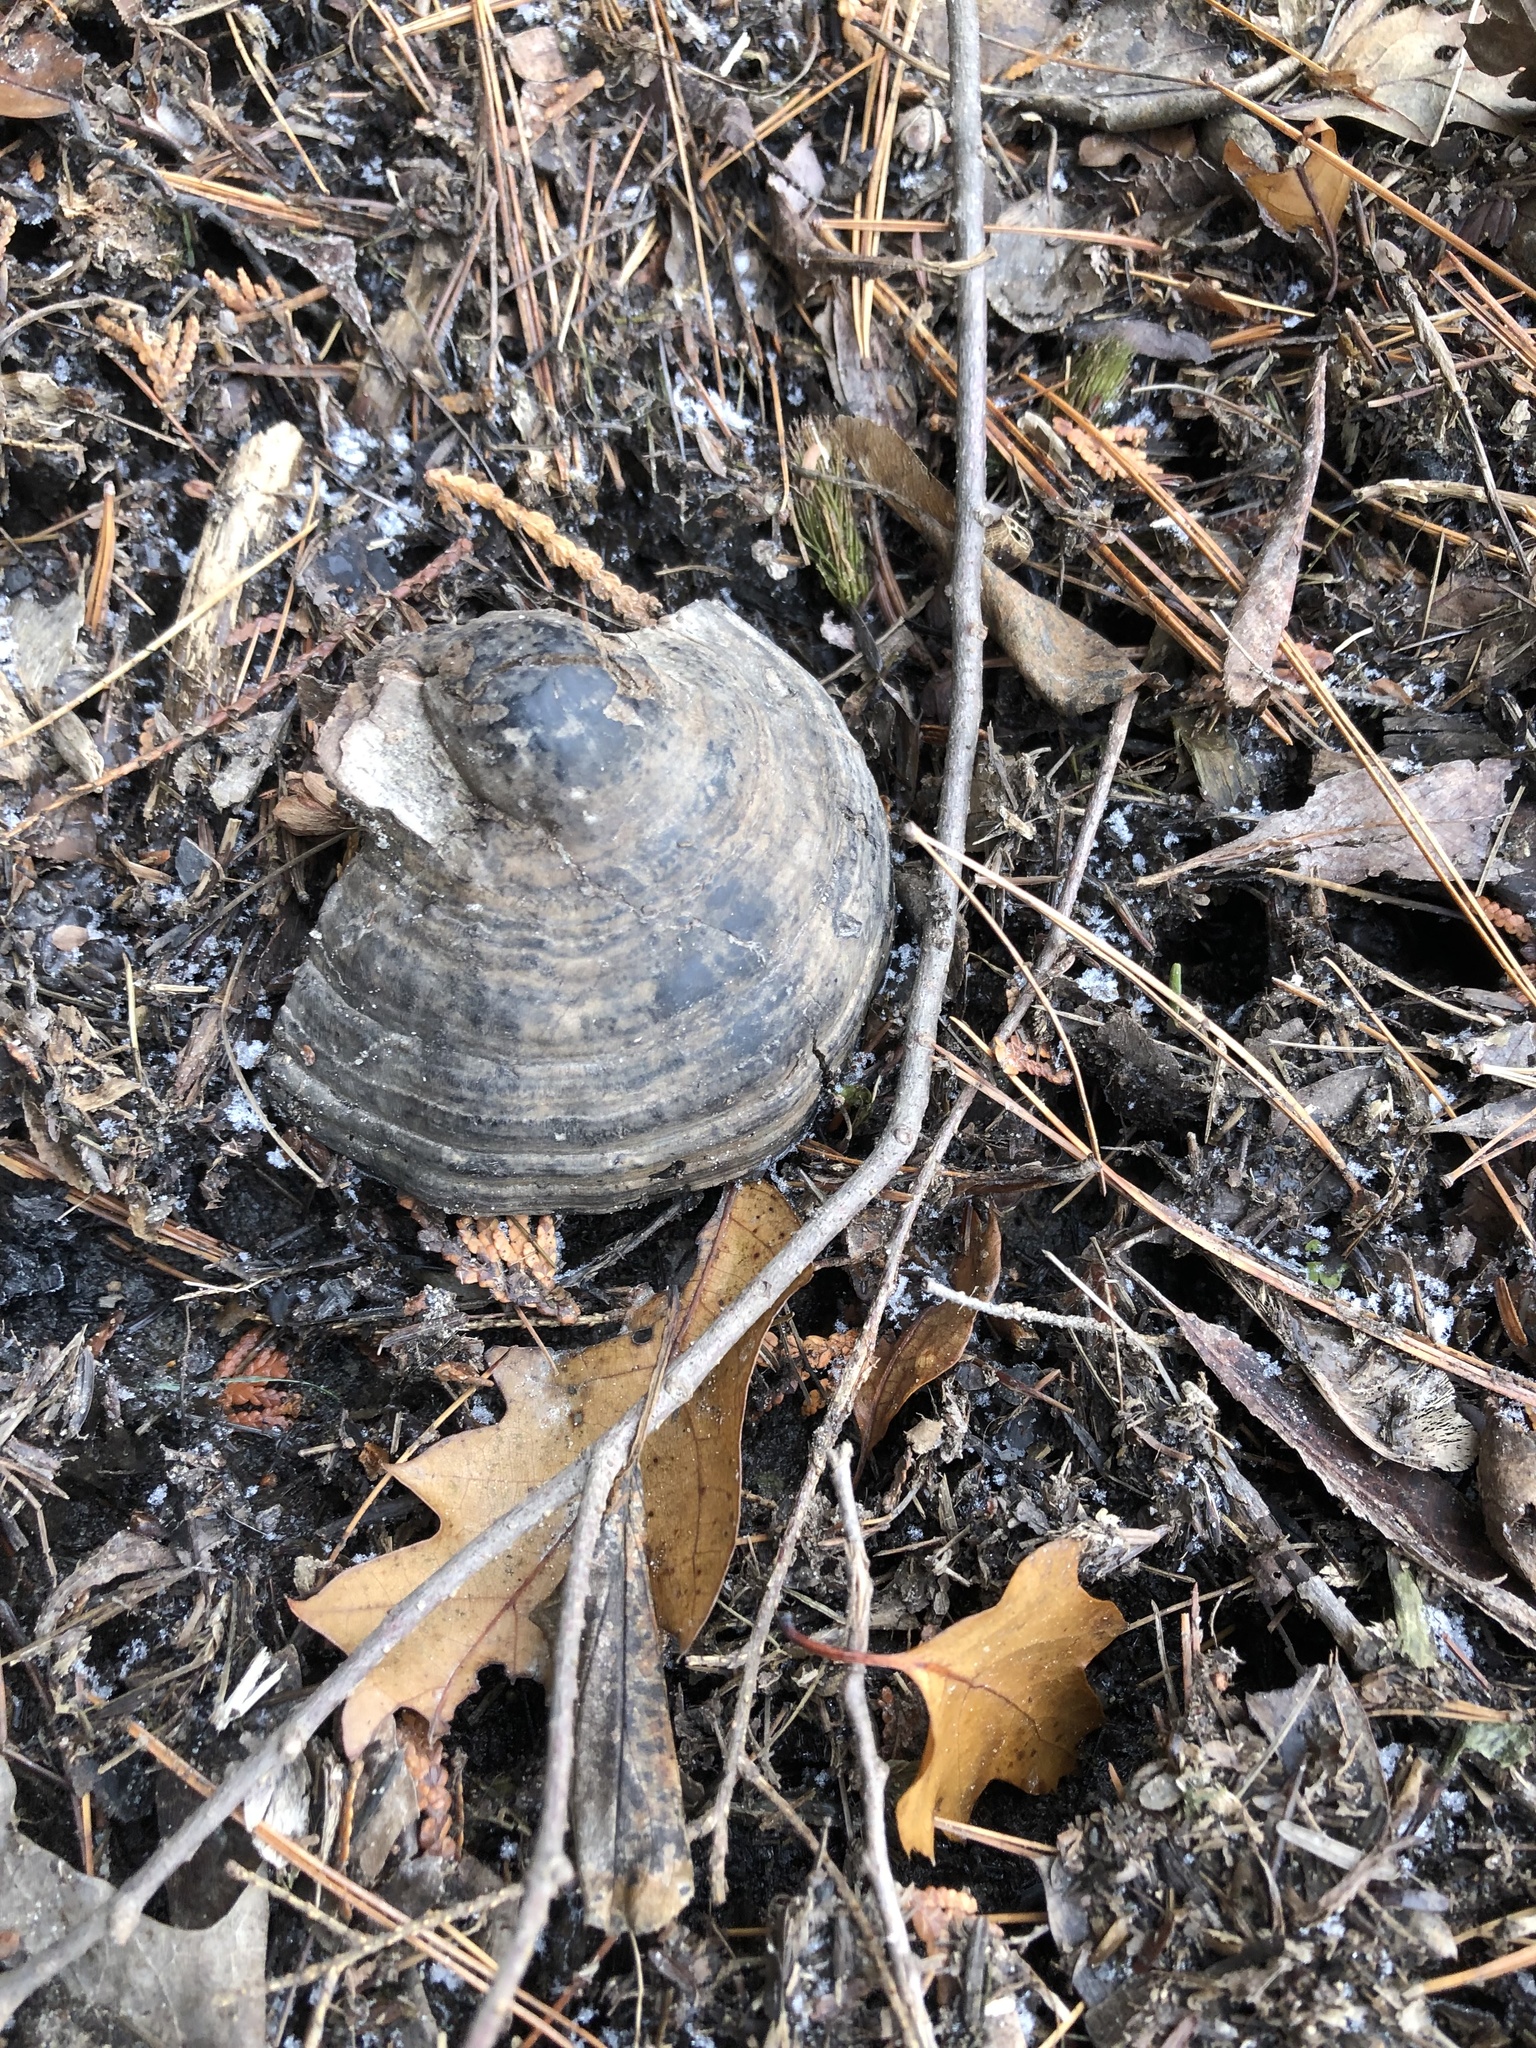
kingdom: Fungi
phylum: Basidiomycota
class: Agaricomycetes
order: Polyporales
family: Polyporaceae
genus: Fomes
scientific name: Fomes fomentarius
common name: Hoof fungus
